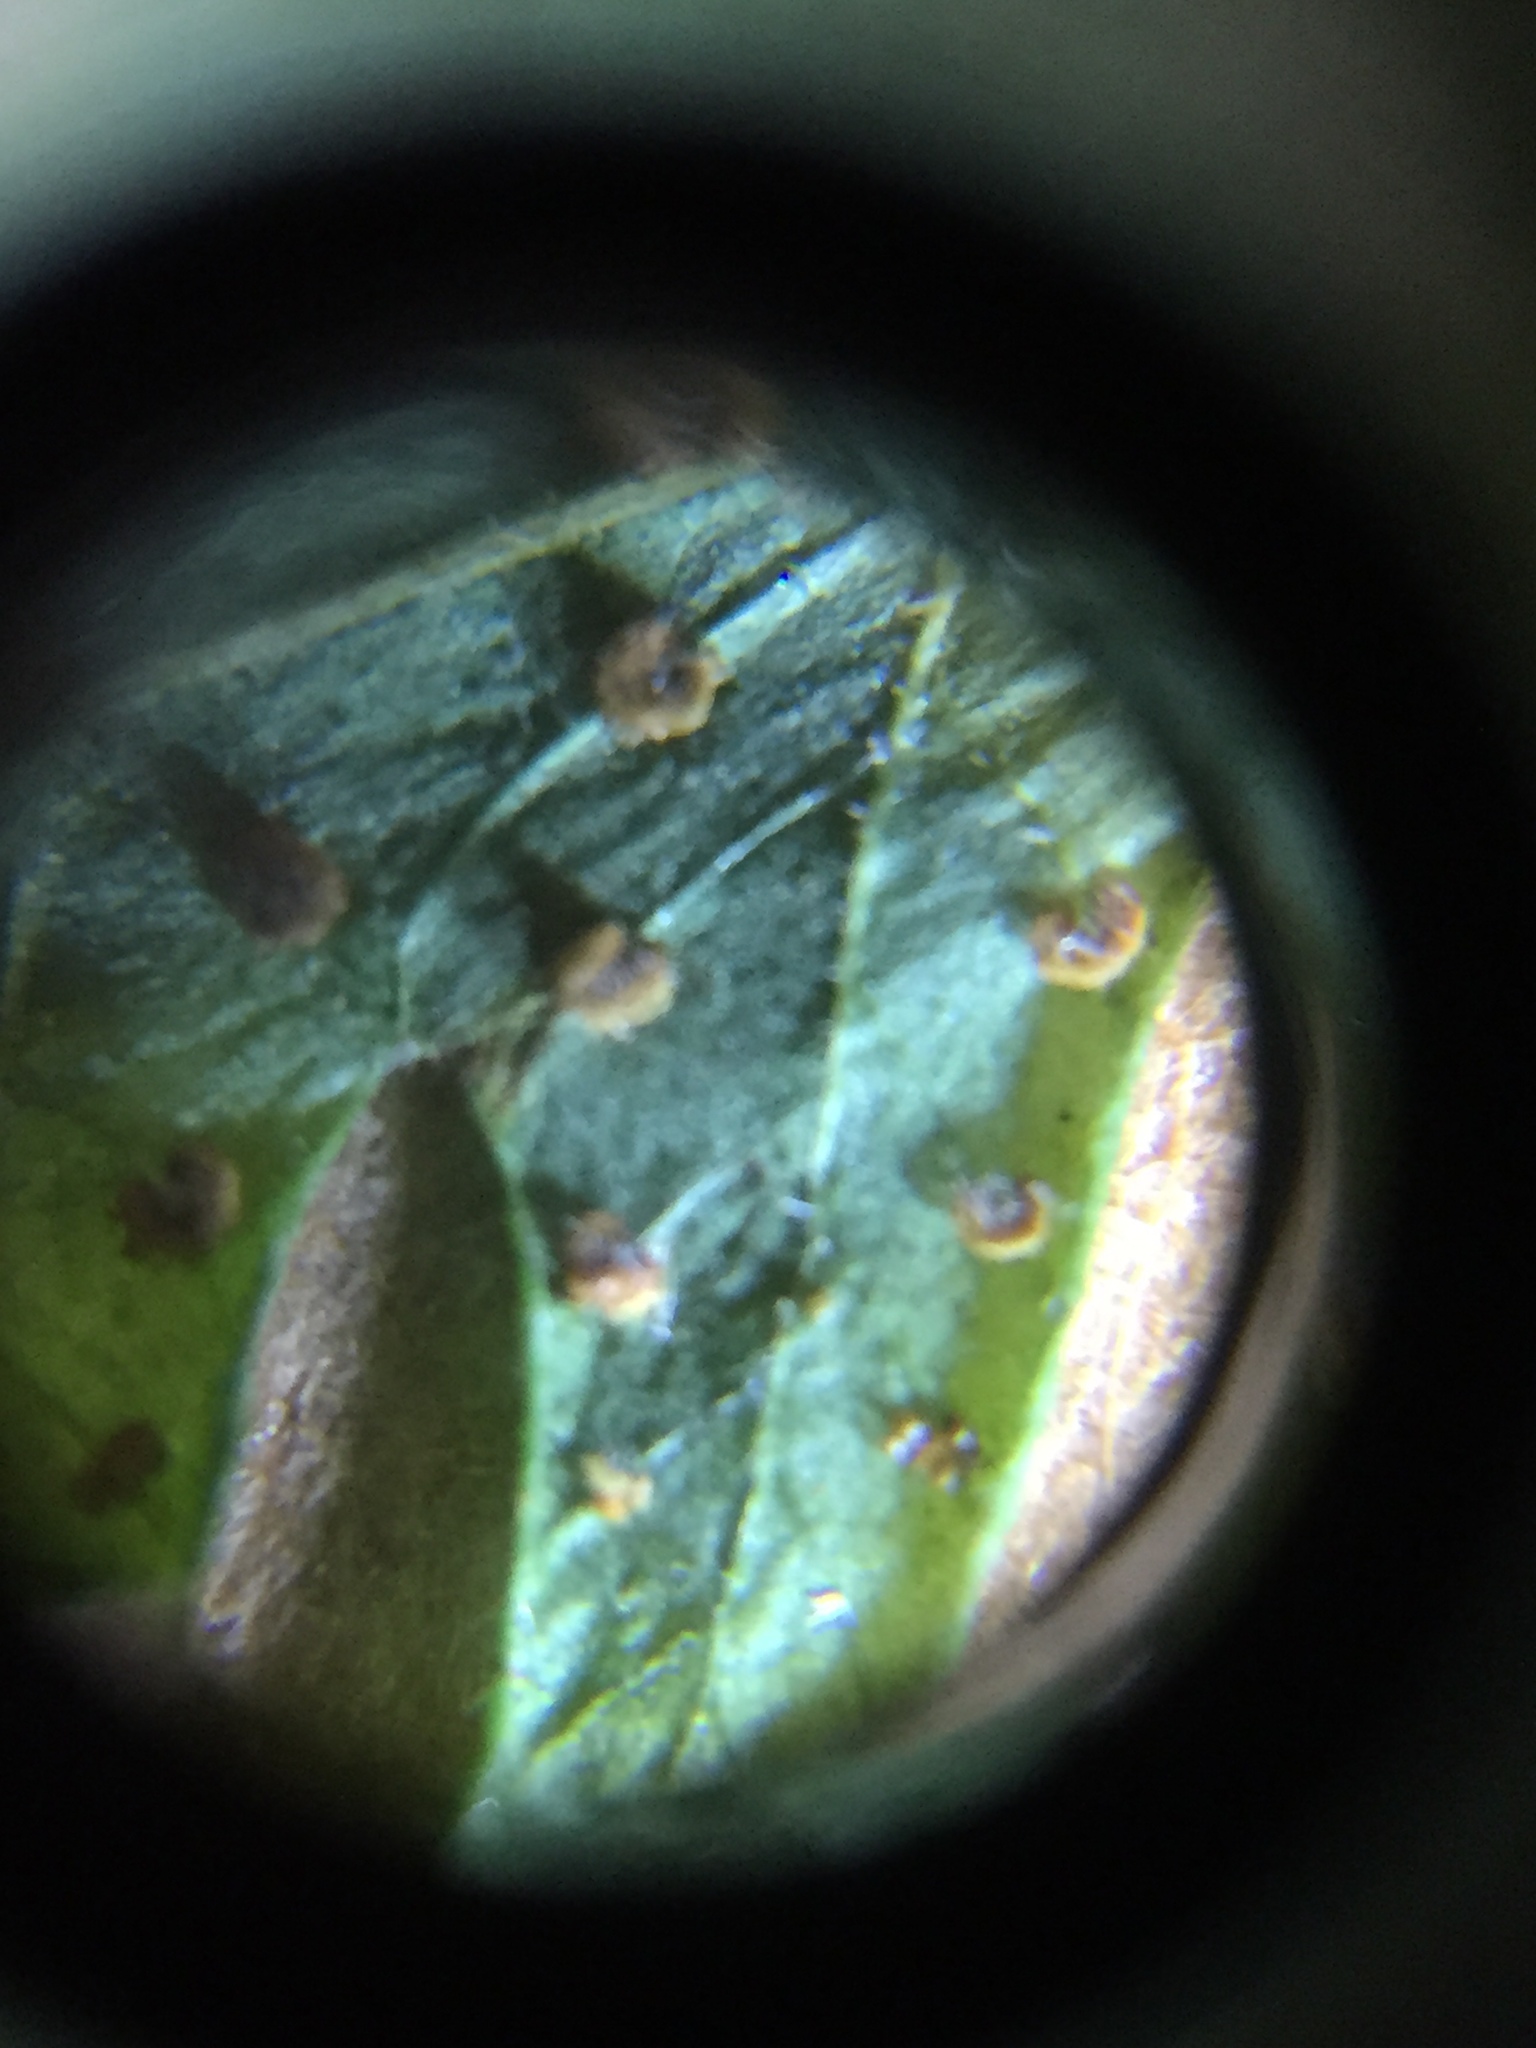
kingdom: Plantae
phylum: Tracheophyta
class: Polypodiopsida
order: Polypodiales
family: Thelypteridaceae
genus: Christella
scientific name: Christella hispidula
